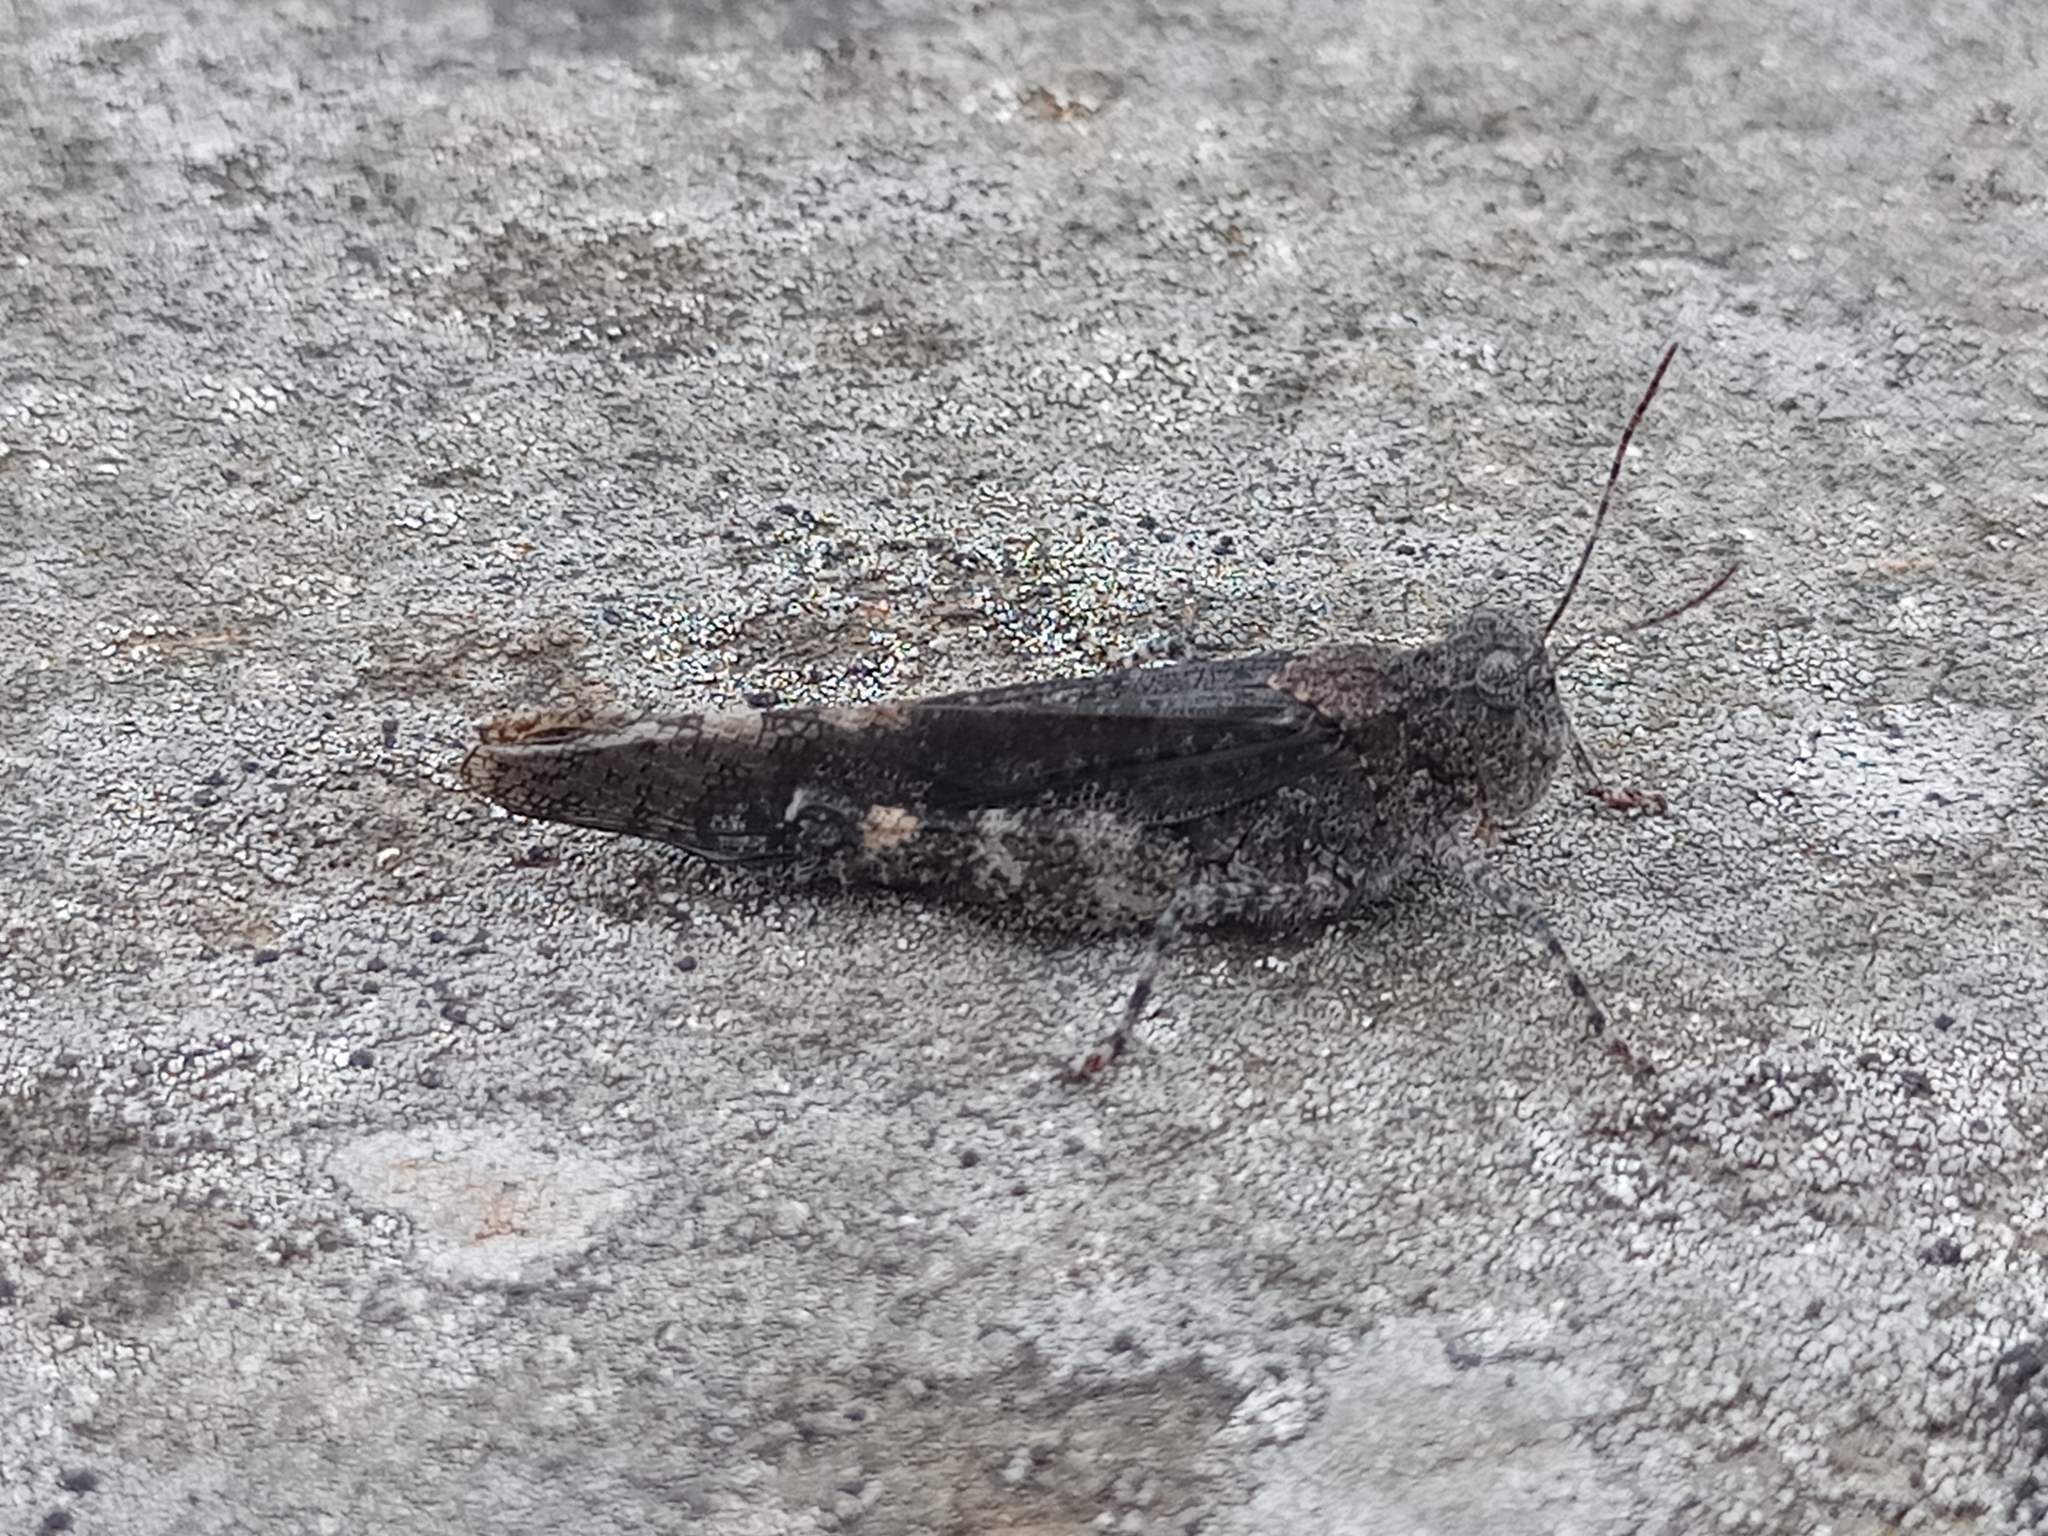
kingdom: Animalia
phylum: Arthropoda
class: Insecta
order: Orthoptera
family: Acrididae
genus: Trimerotropis
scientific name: Trimerotropis verruculata
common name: Crackling forest grasshopper
